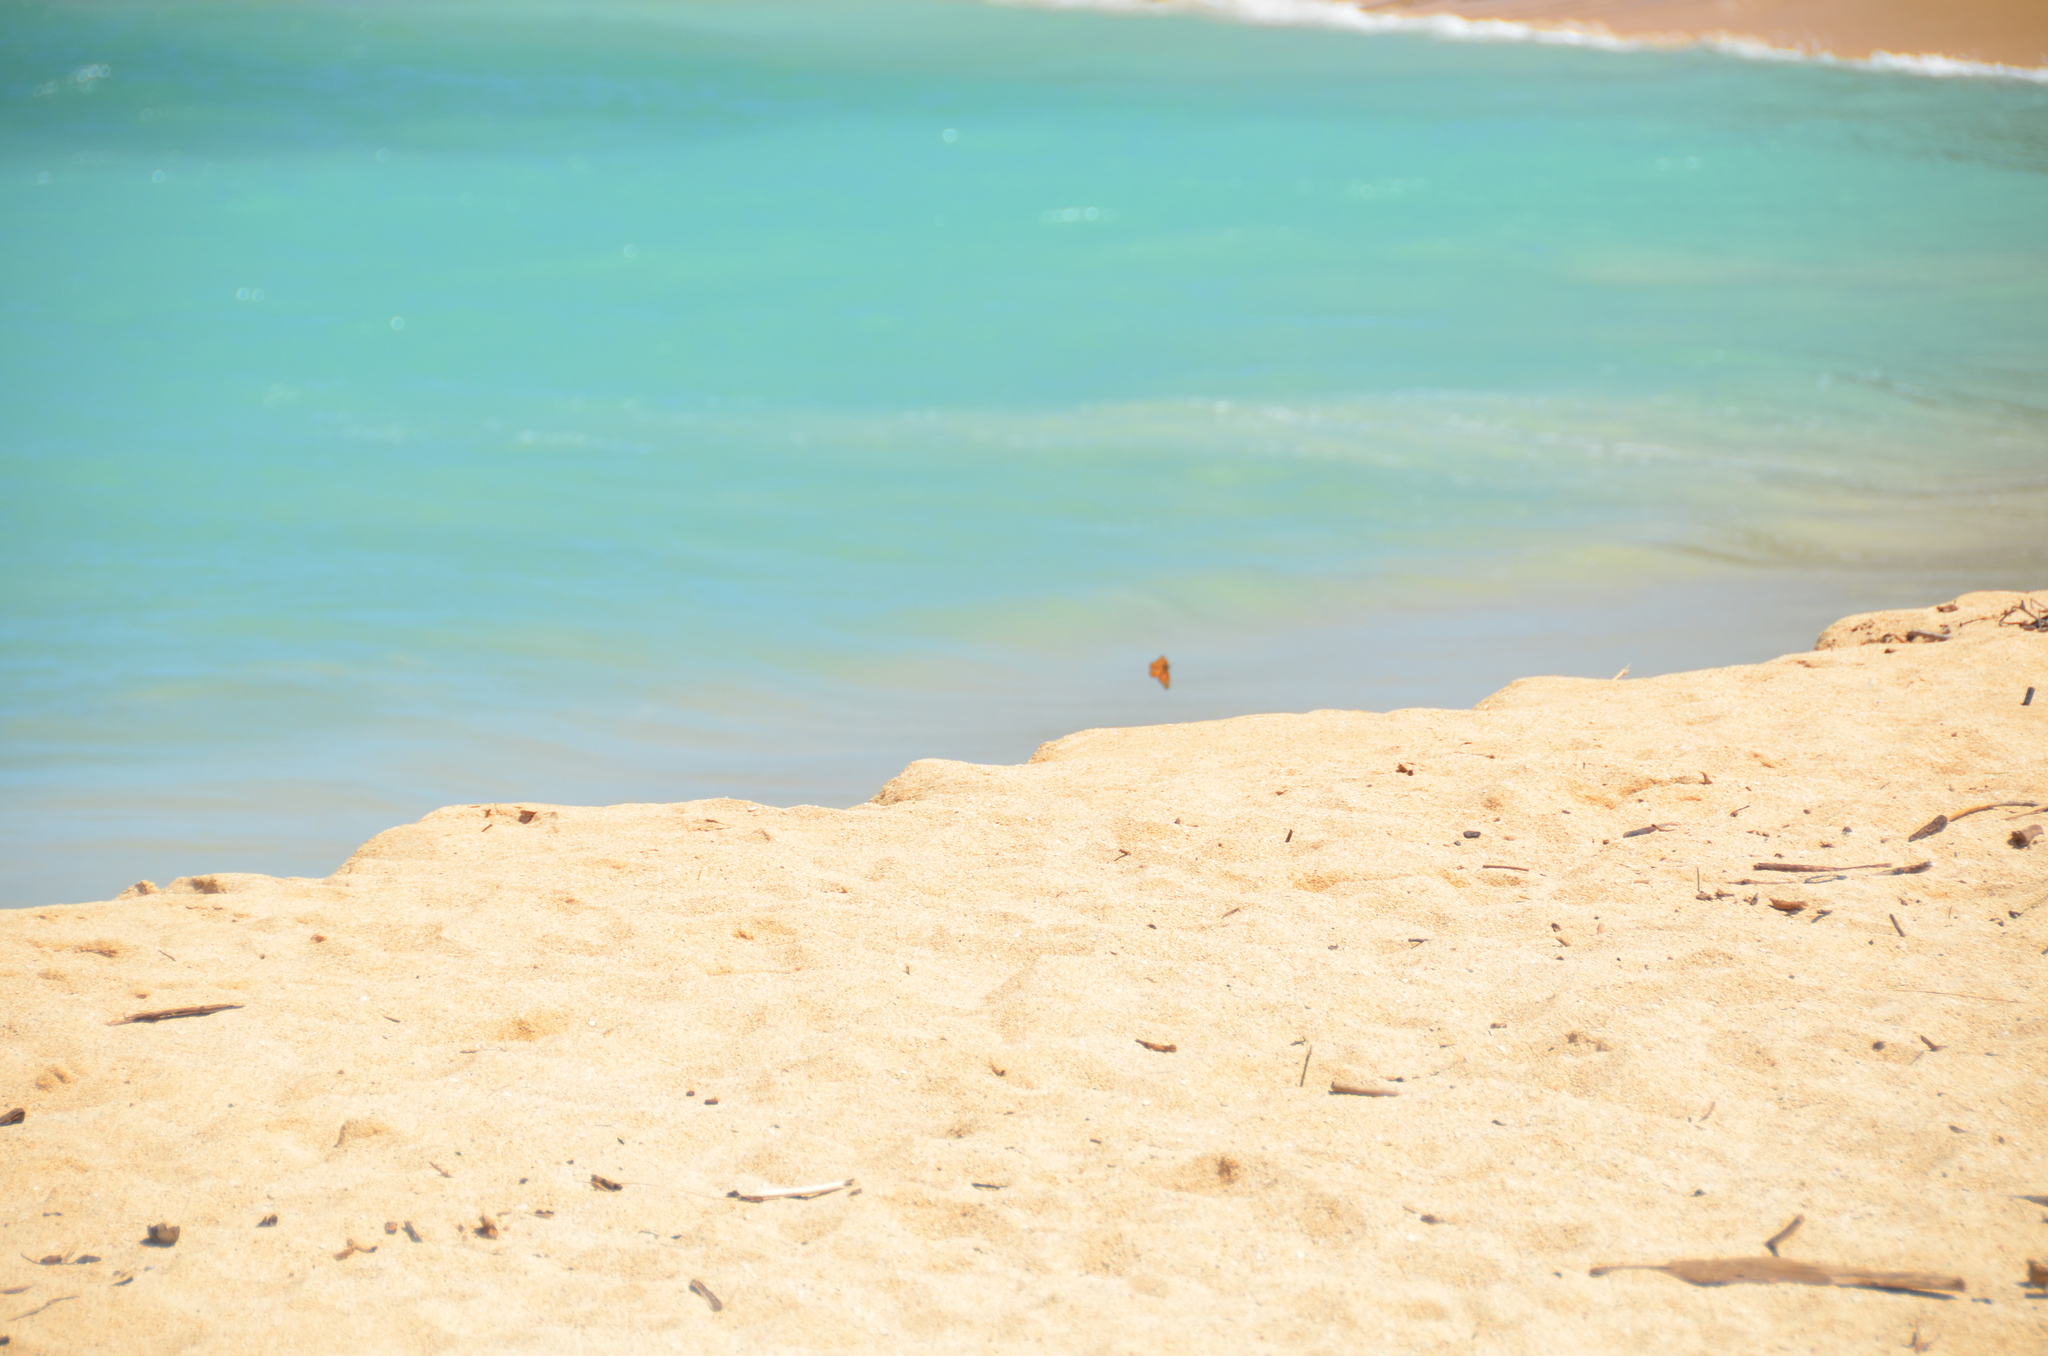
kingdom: Animalia
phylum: Arthropoda
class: Insecta
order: Lepidoptera
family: Nymphalidae
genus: Danaus
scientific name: Danaus plexippus
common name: Monarch
